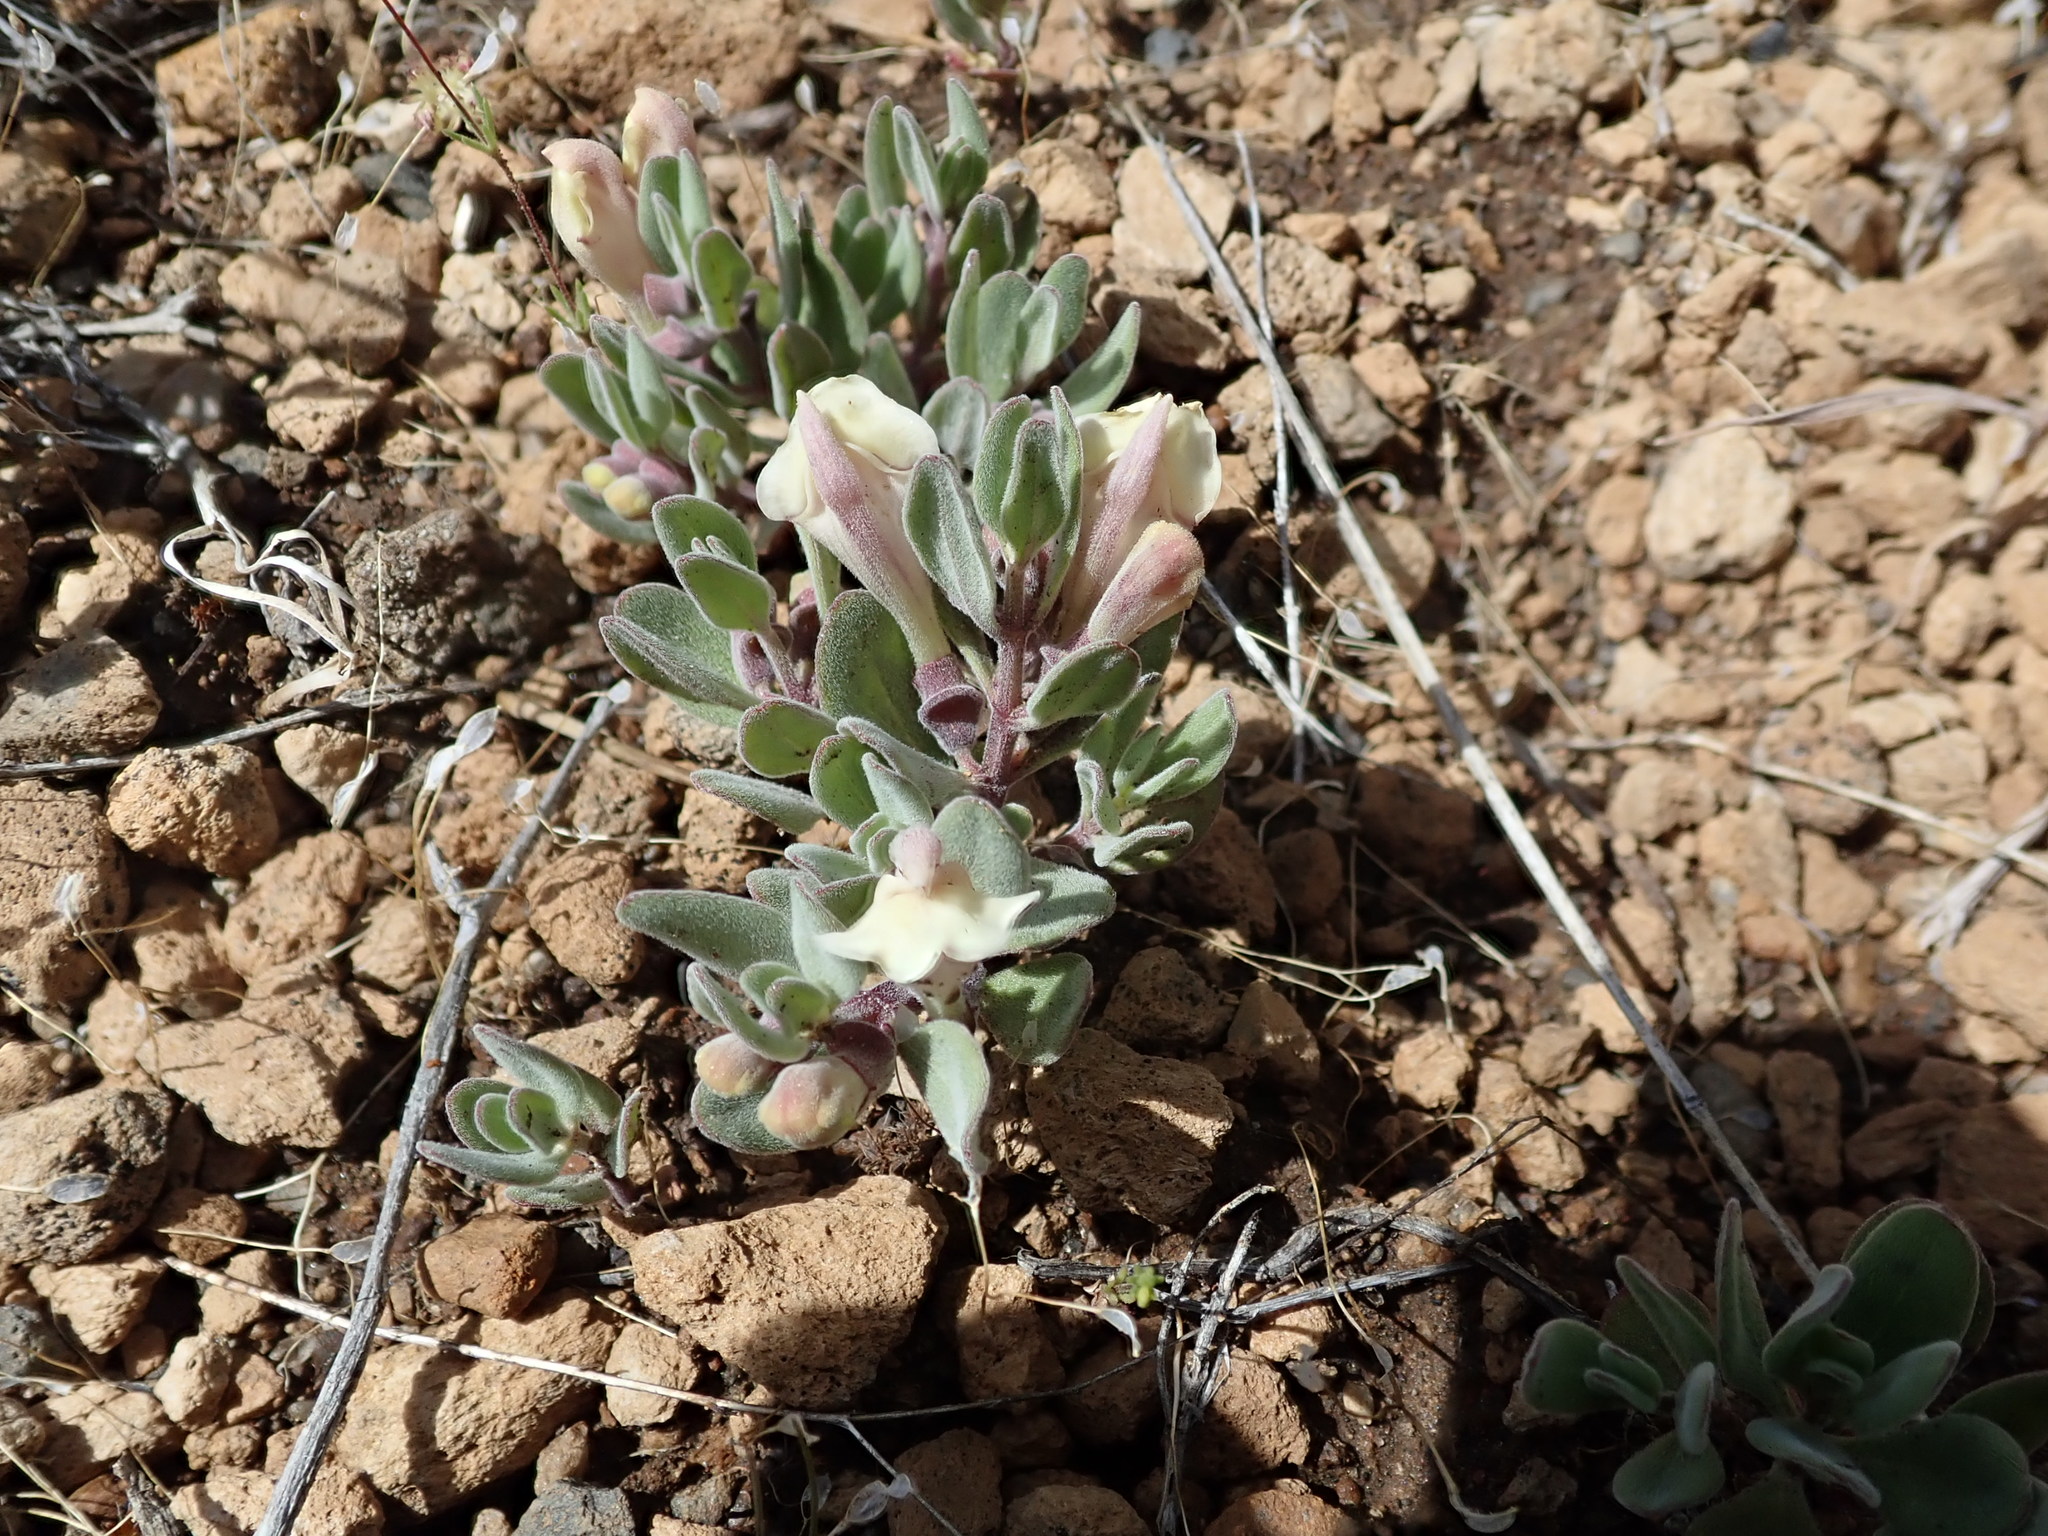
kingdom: Plantae
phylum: Tracheophyta
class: Magnoliopsida
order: Lamiales
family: Lamiaceae
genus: Scutellaria
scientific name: Scutellaria nana
